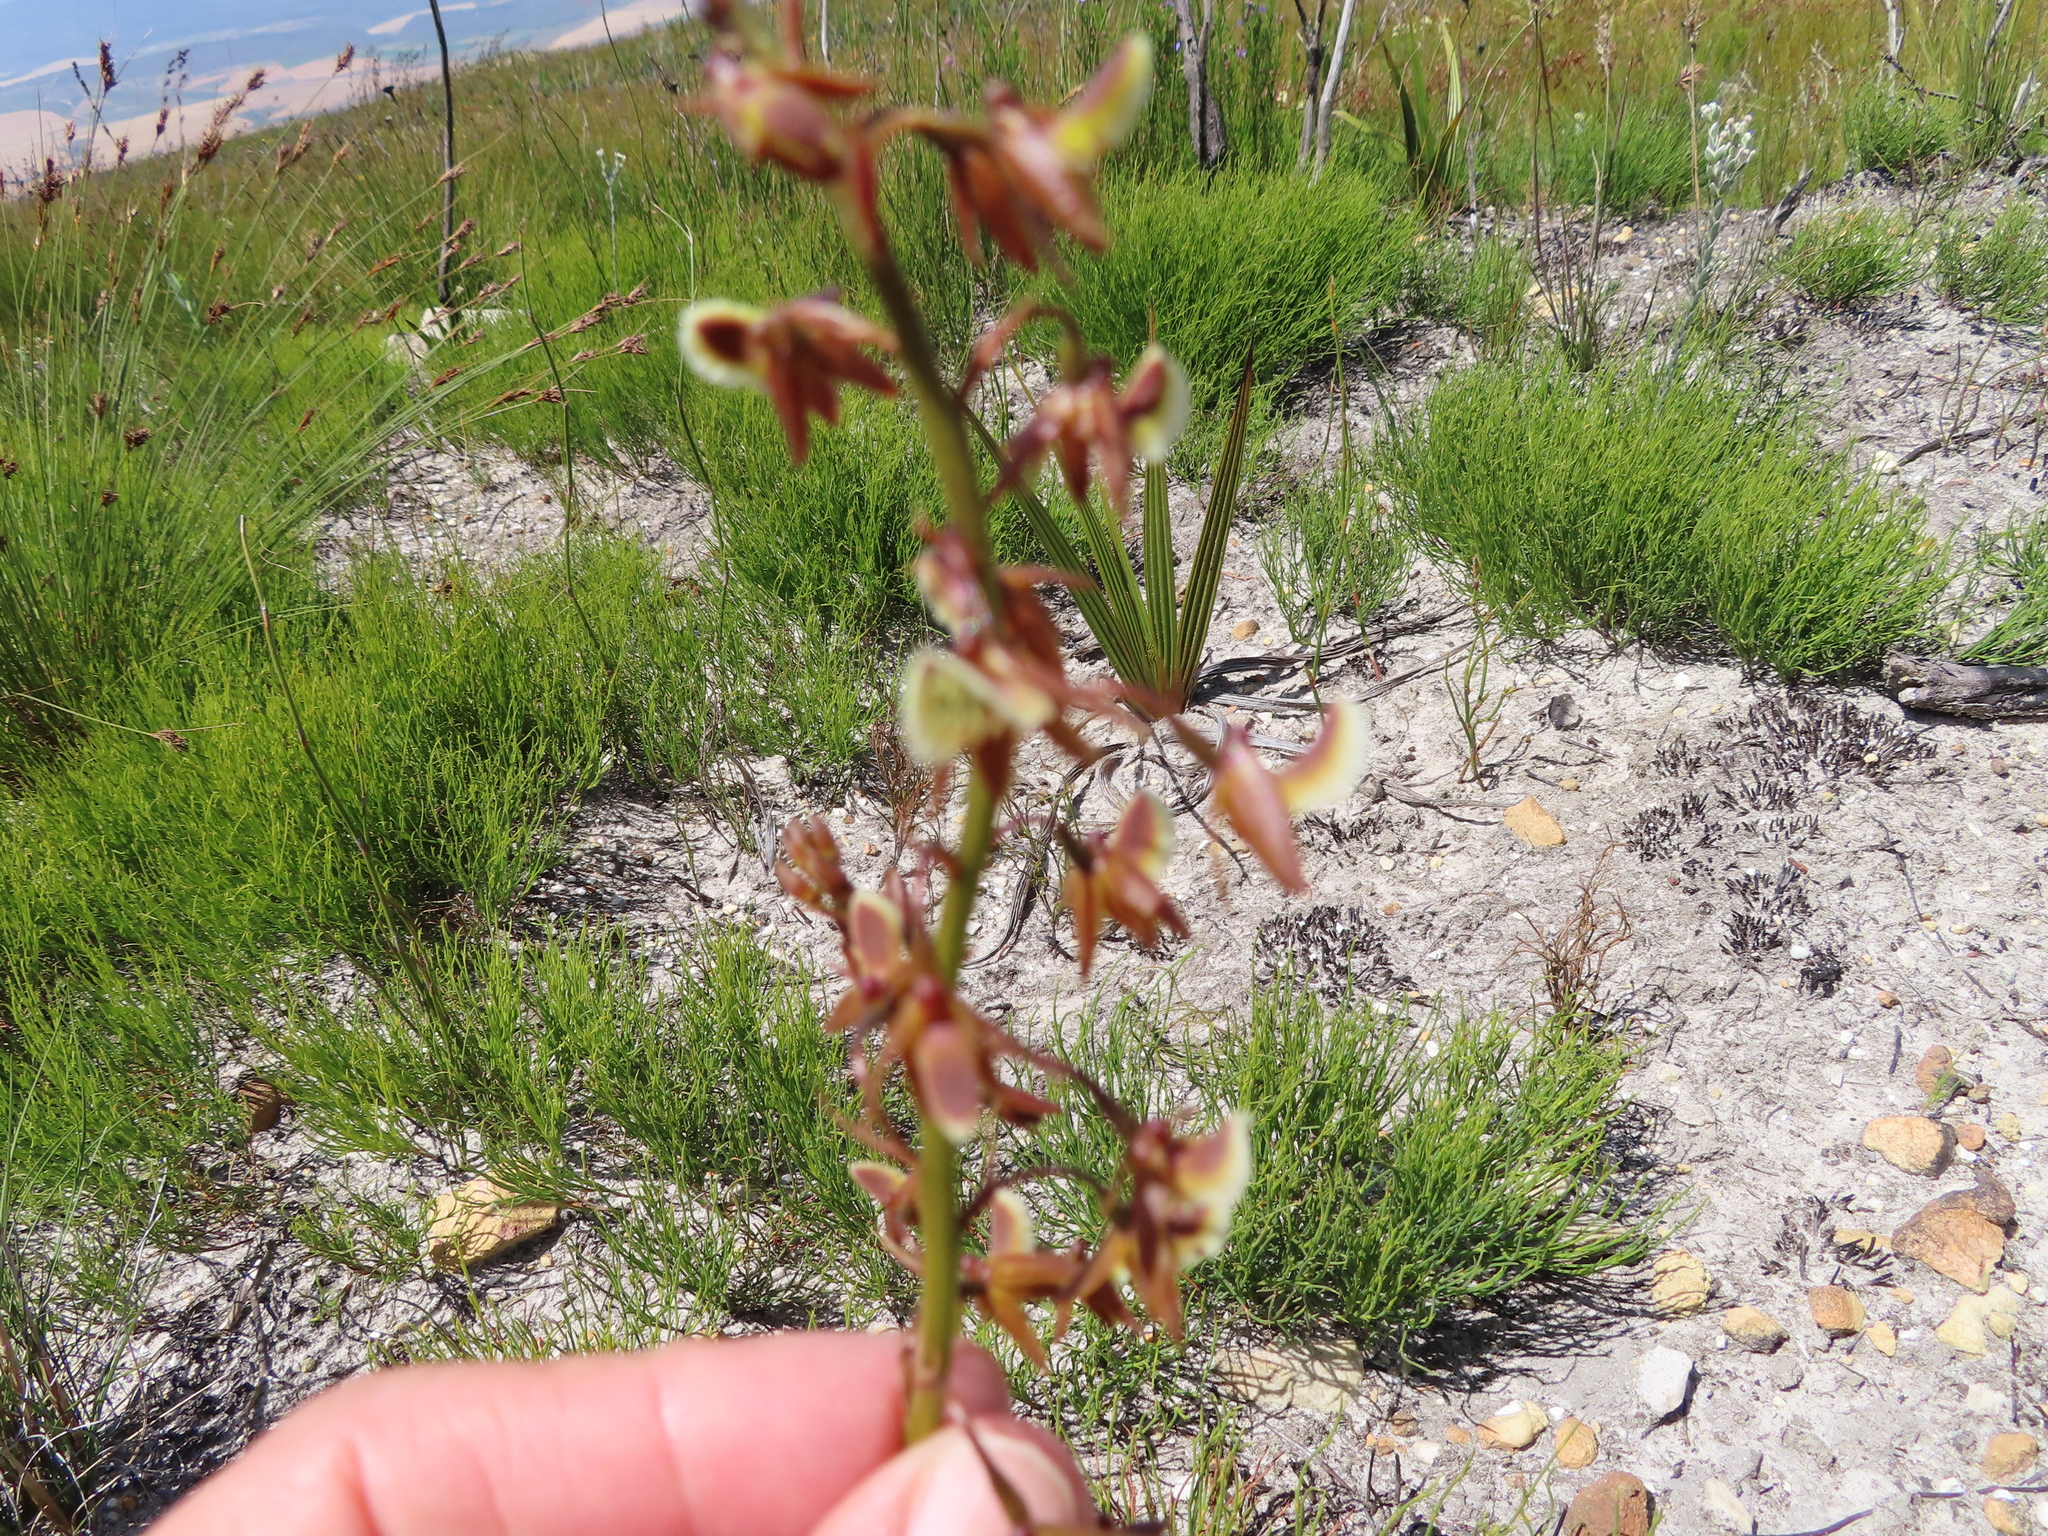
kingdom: Plantae
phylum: Tracheophyta
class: Liliopsida
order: Asparagales
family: Orchidaceae
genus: Eulophia
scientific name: Eulophia bolusii
